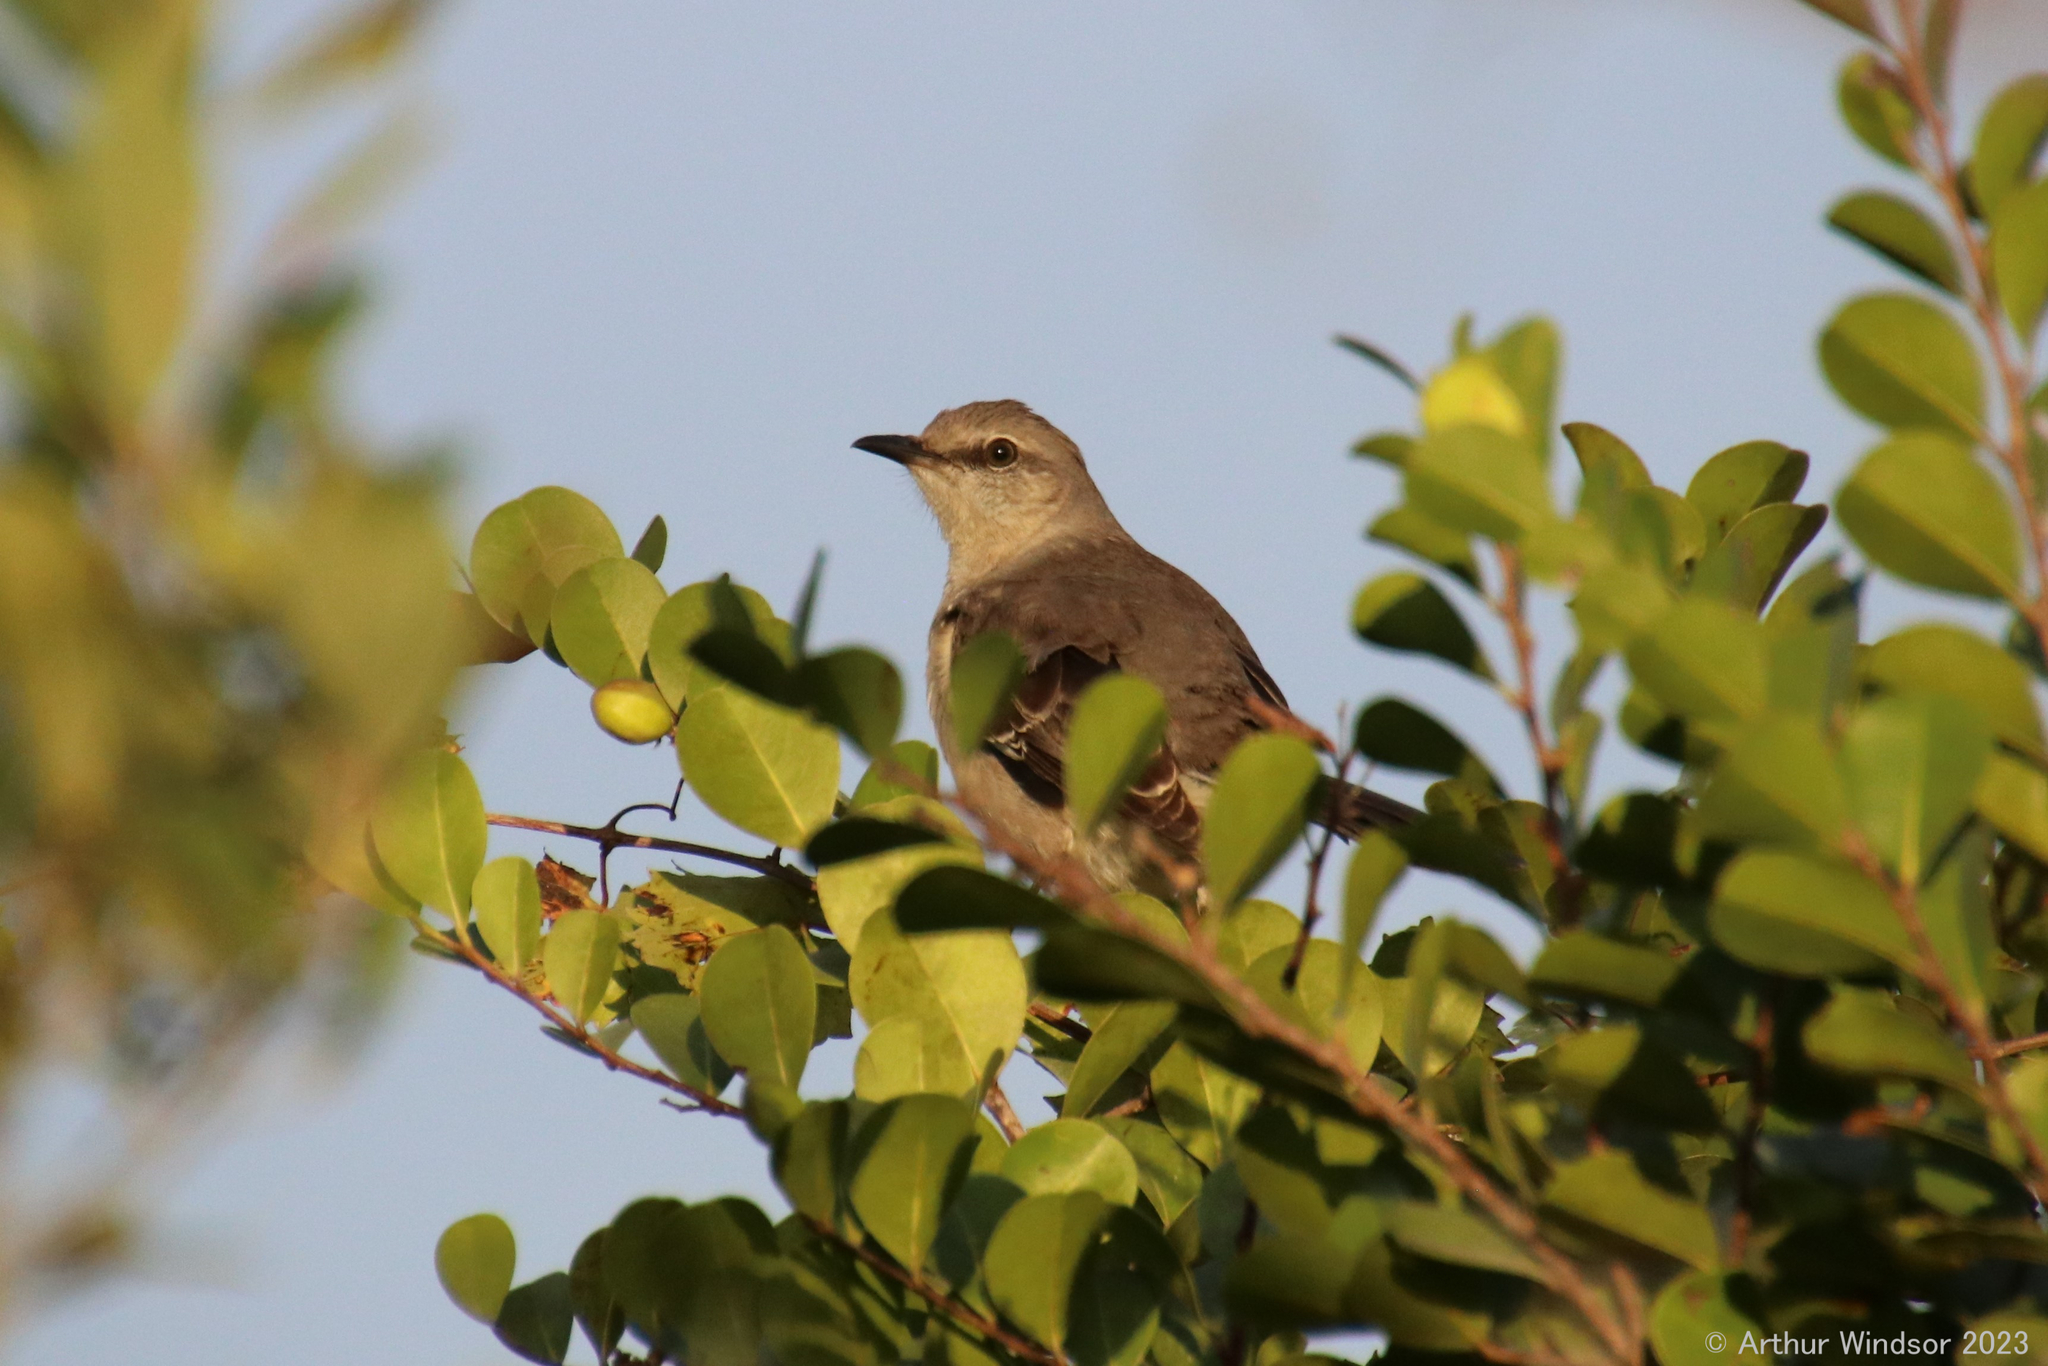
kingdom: Animalia
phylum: Chordata
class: Aves
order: Passeriformes
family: Mimidae
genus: Mimus
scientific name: Mimus polyglottos
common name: Northern mockingbird
